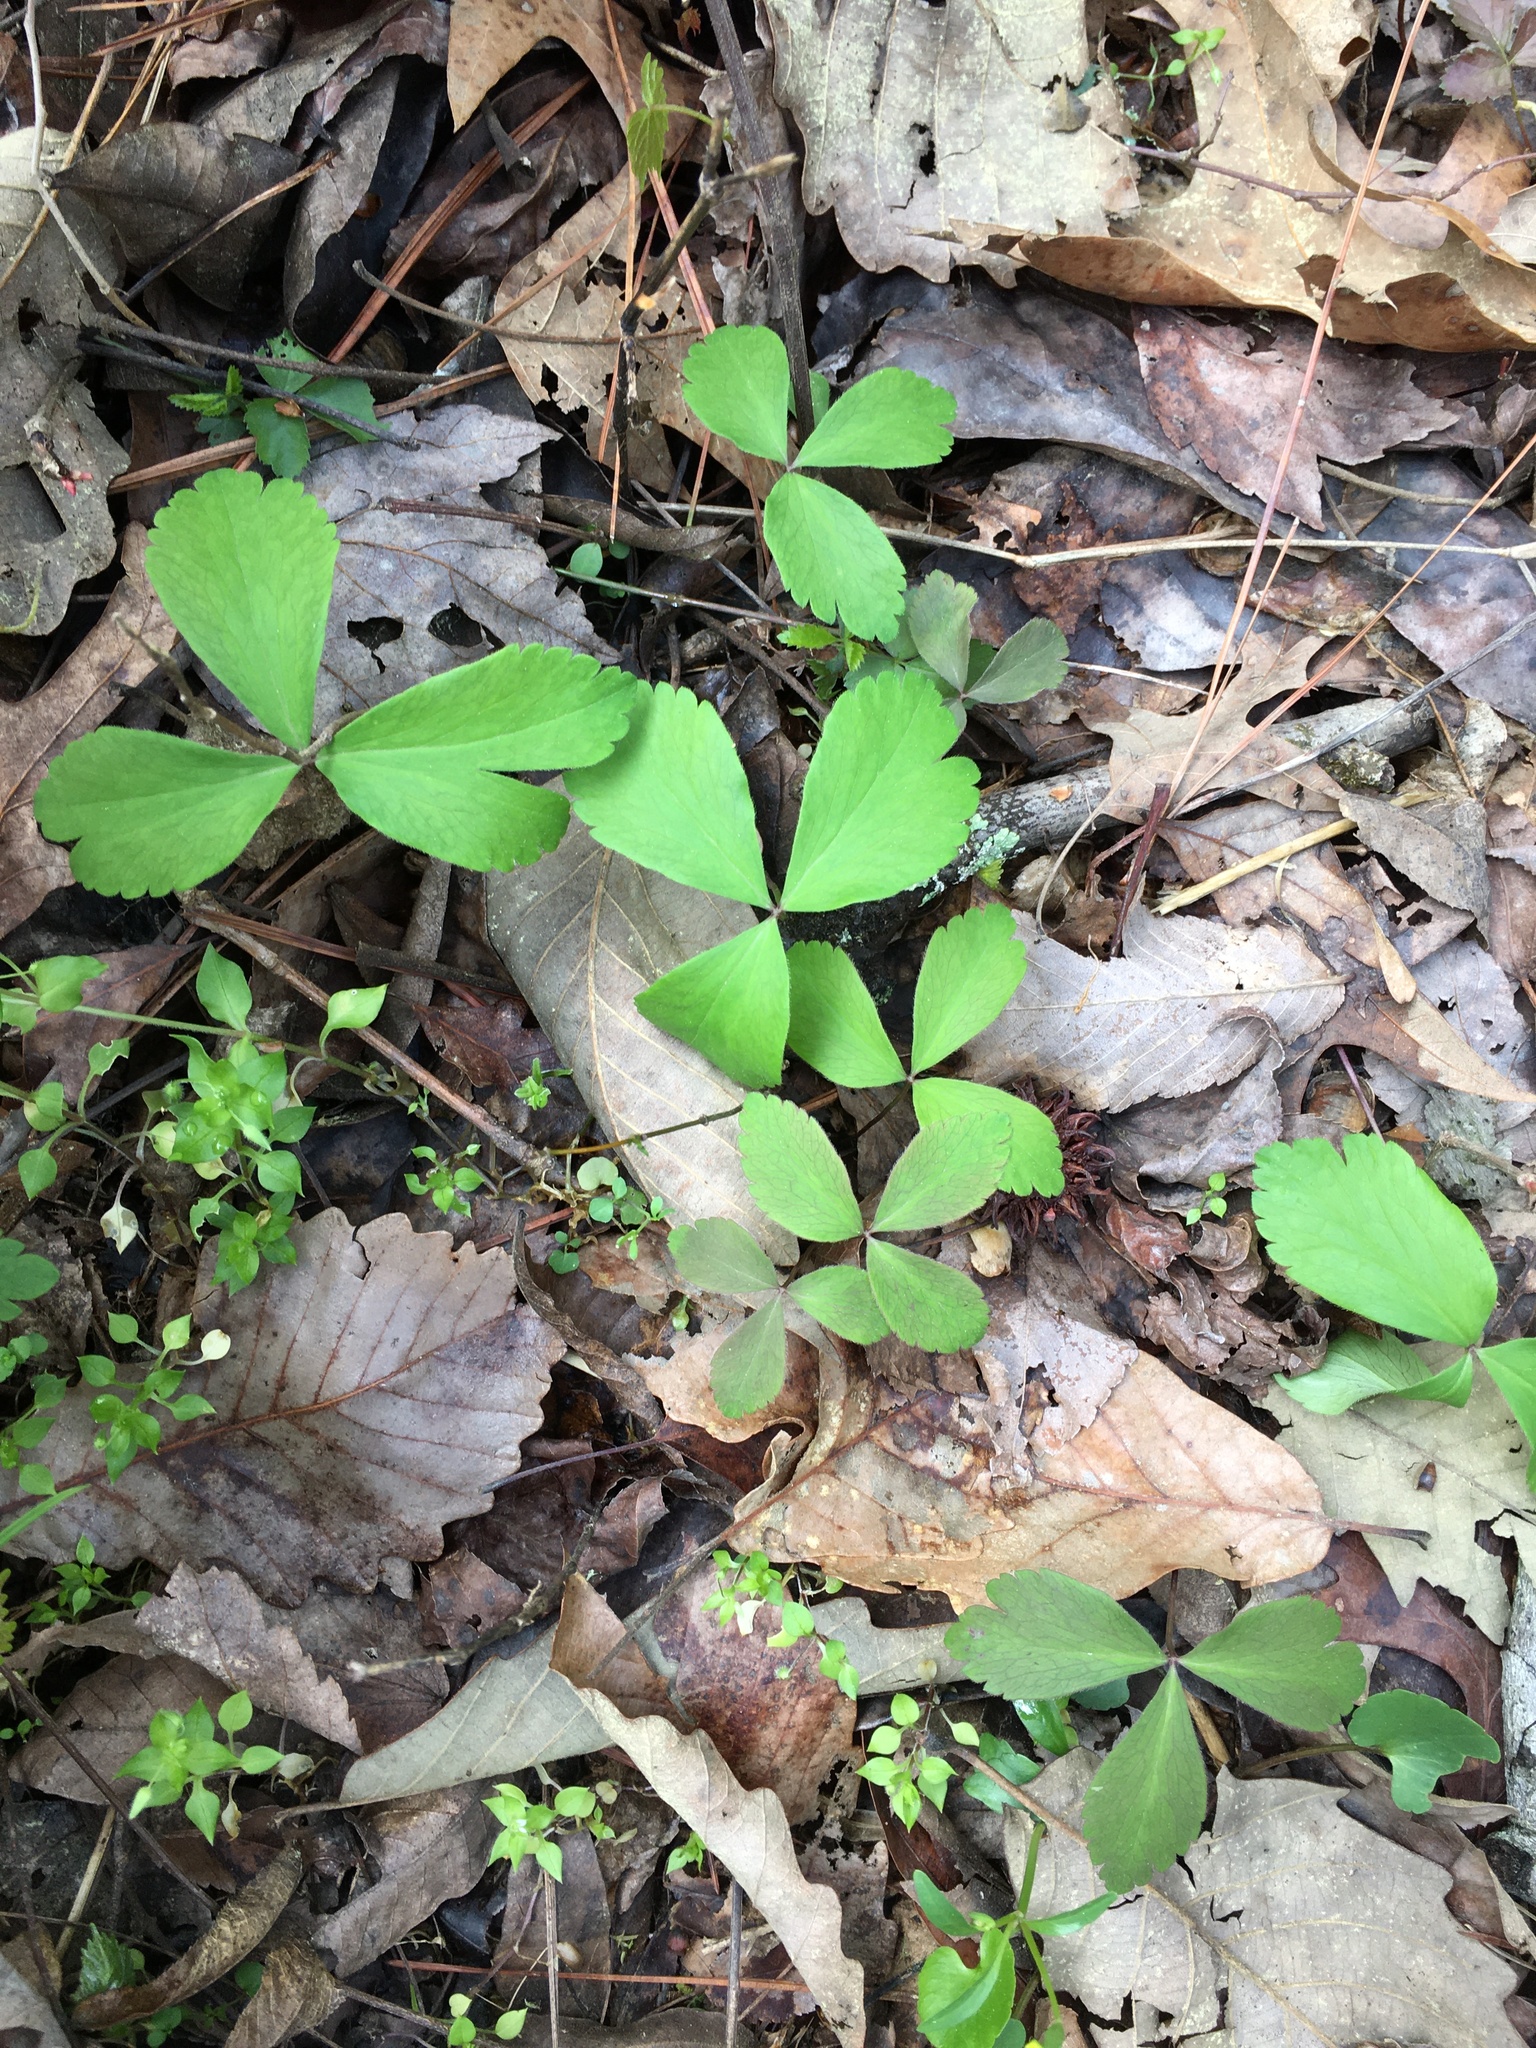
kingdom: Plantae
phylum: Tracheophyta
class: Magnoliopsida
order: Ranunculales
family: Ranunculaceae
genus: Anemone
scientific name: Anemone lancifolia
